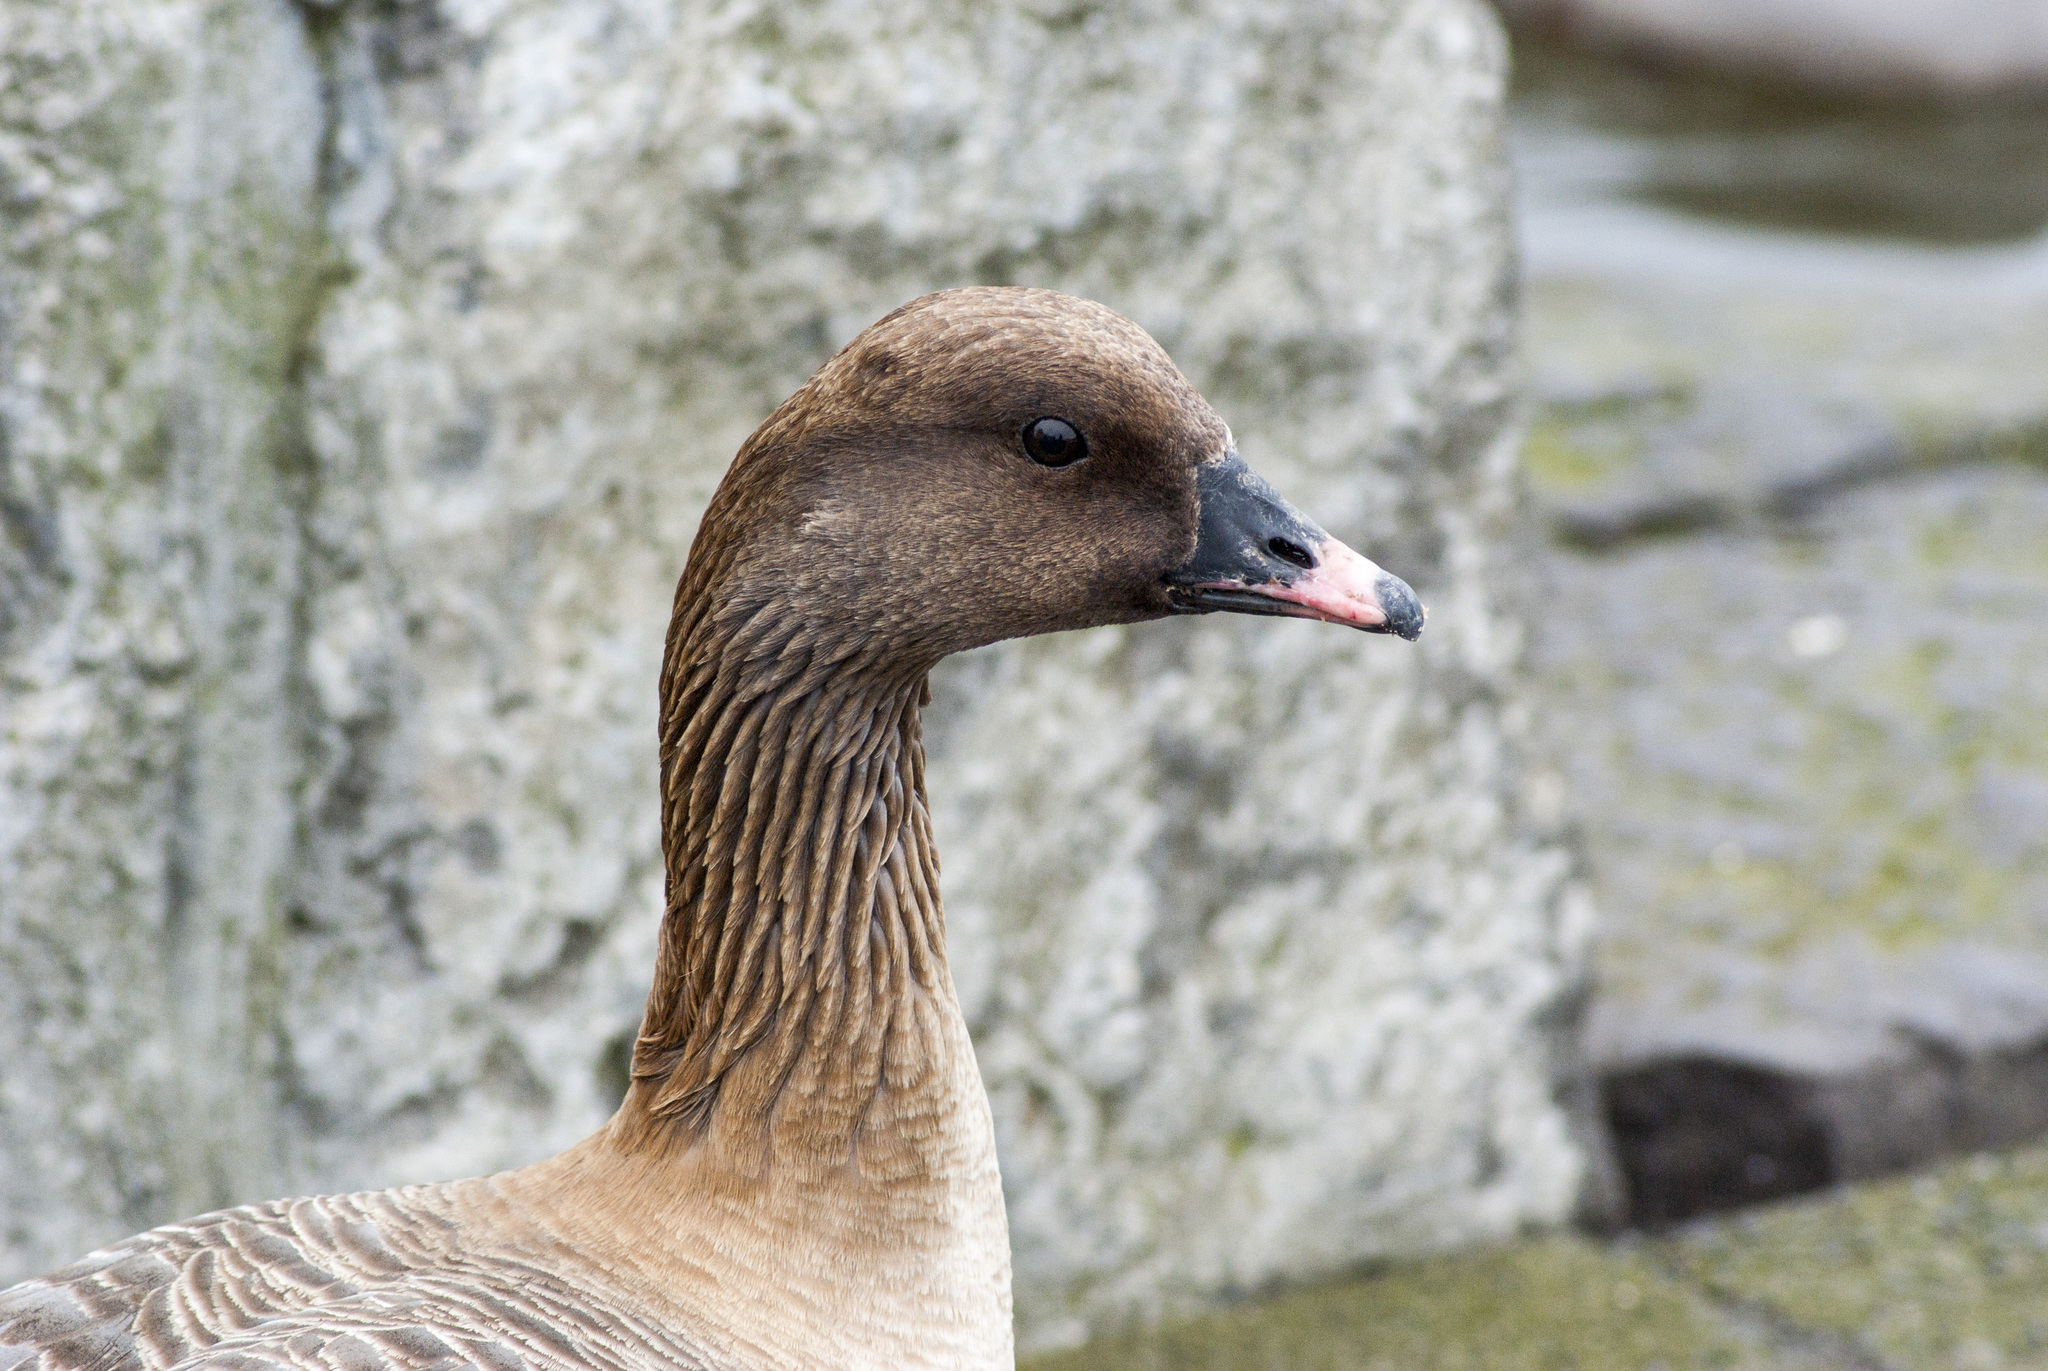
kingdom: Animalia
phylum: Chordata
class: Aves
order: Anseriformes
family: Anatidae
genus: Anser
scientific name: Anser brachyrhynchus
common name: Pink-footed goose
